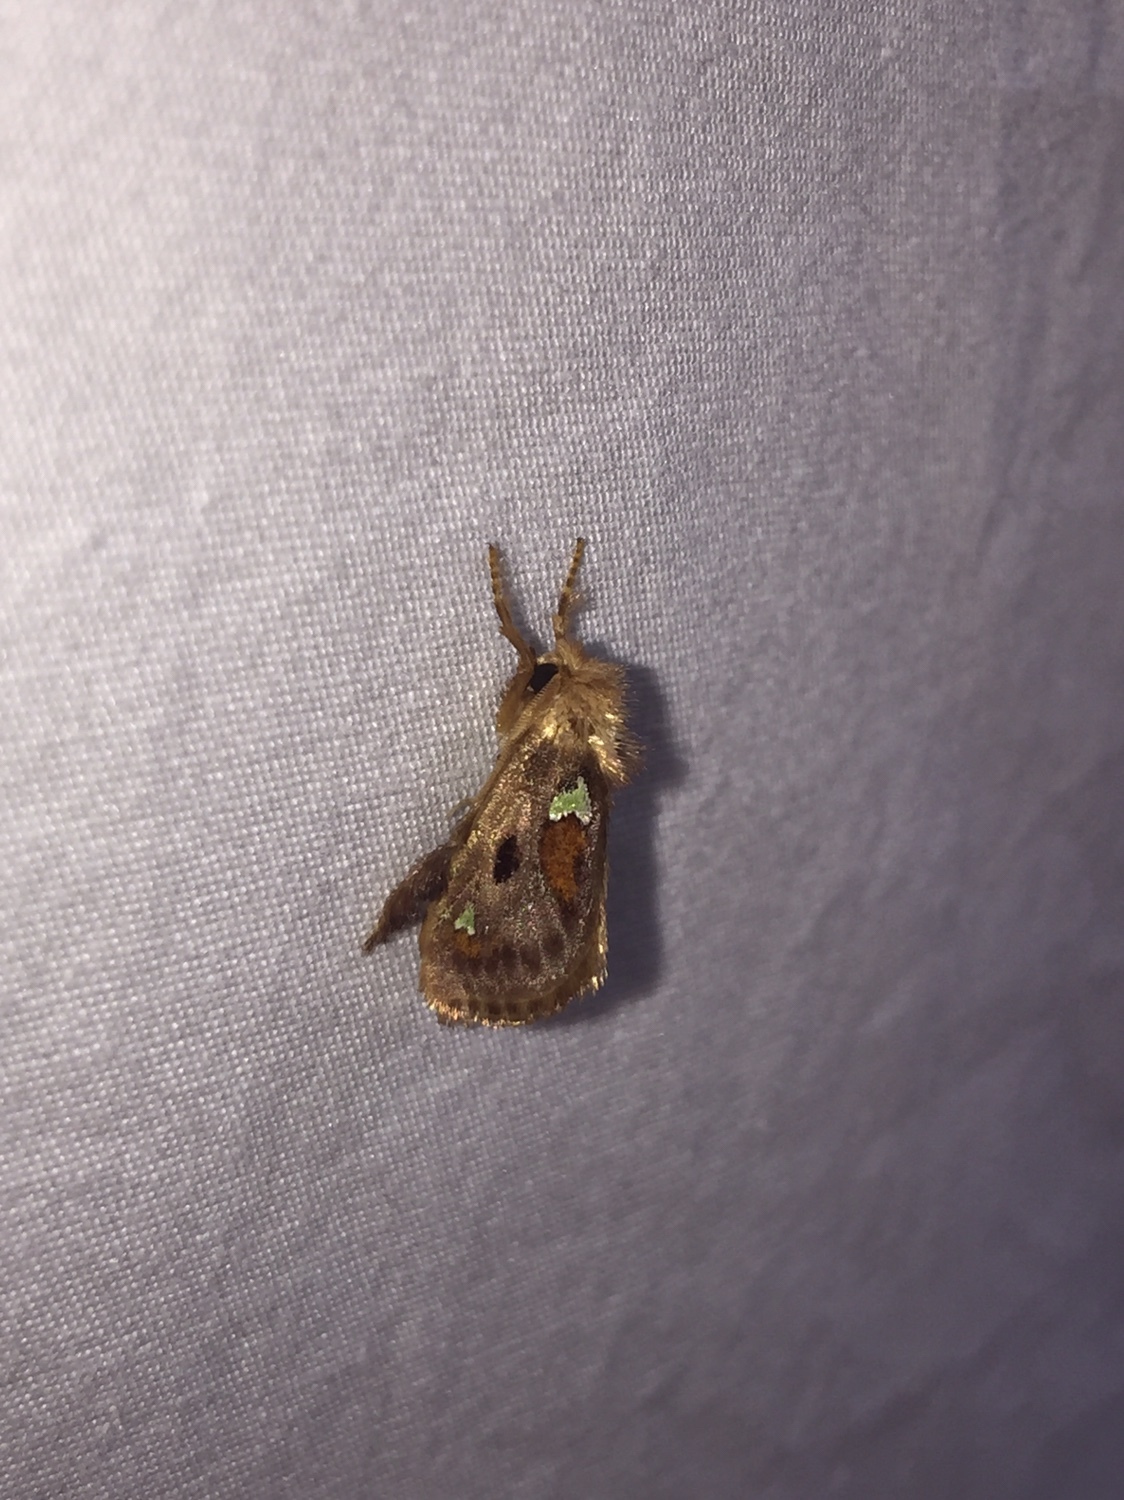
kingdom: Animalia
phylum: Arthropoda
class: Insecta
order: Lepidoptera
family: Limacodidae
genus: Euclea
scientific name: Euclea delphinii
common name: Spiny oak-slug moth
